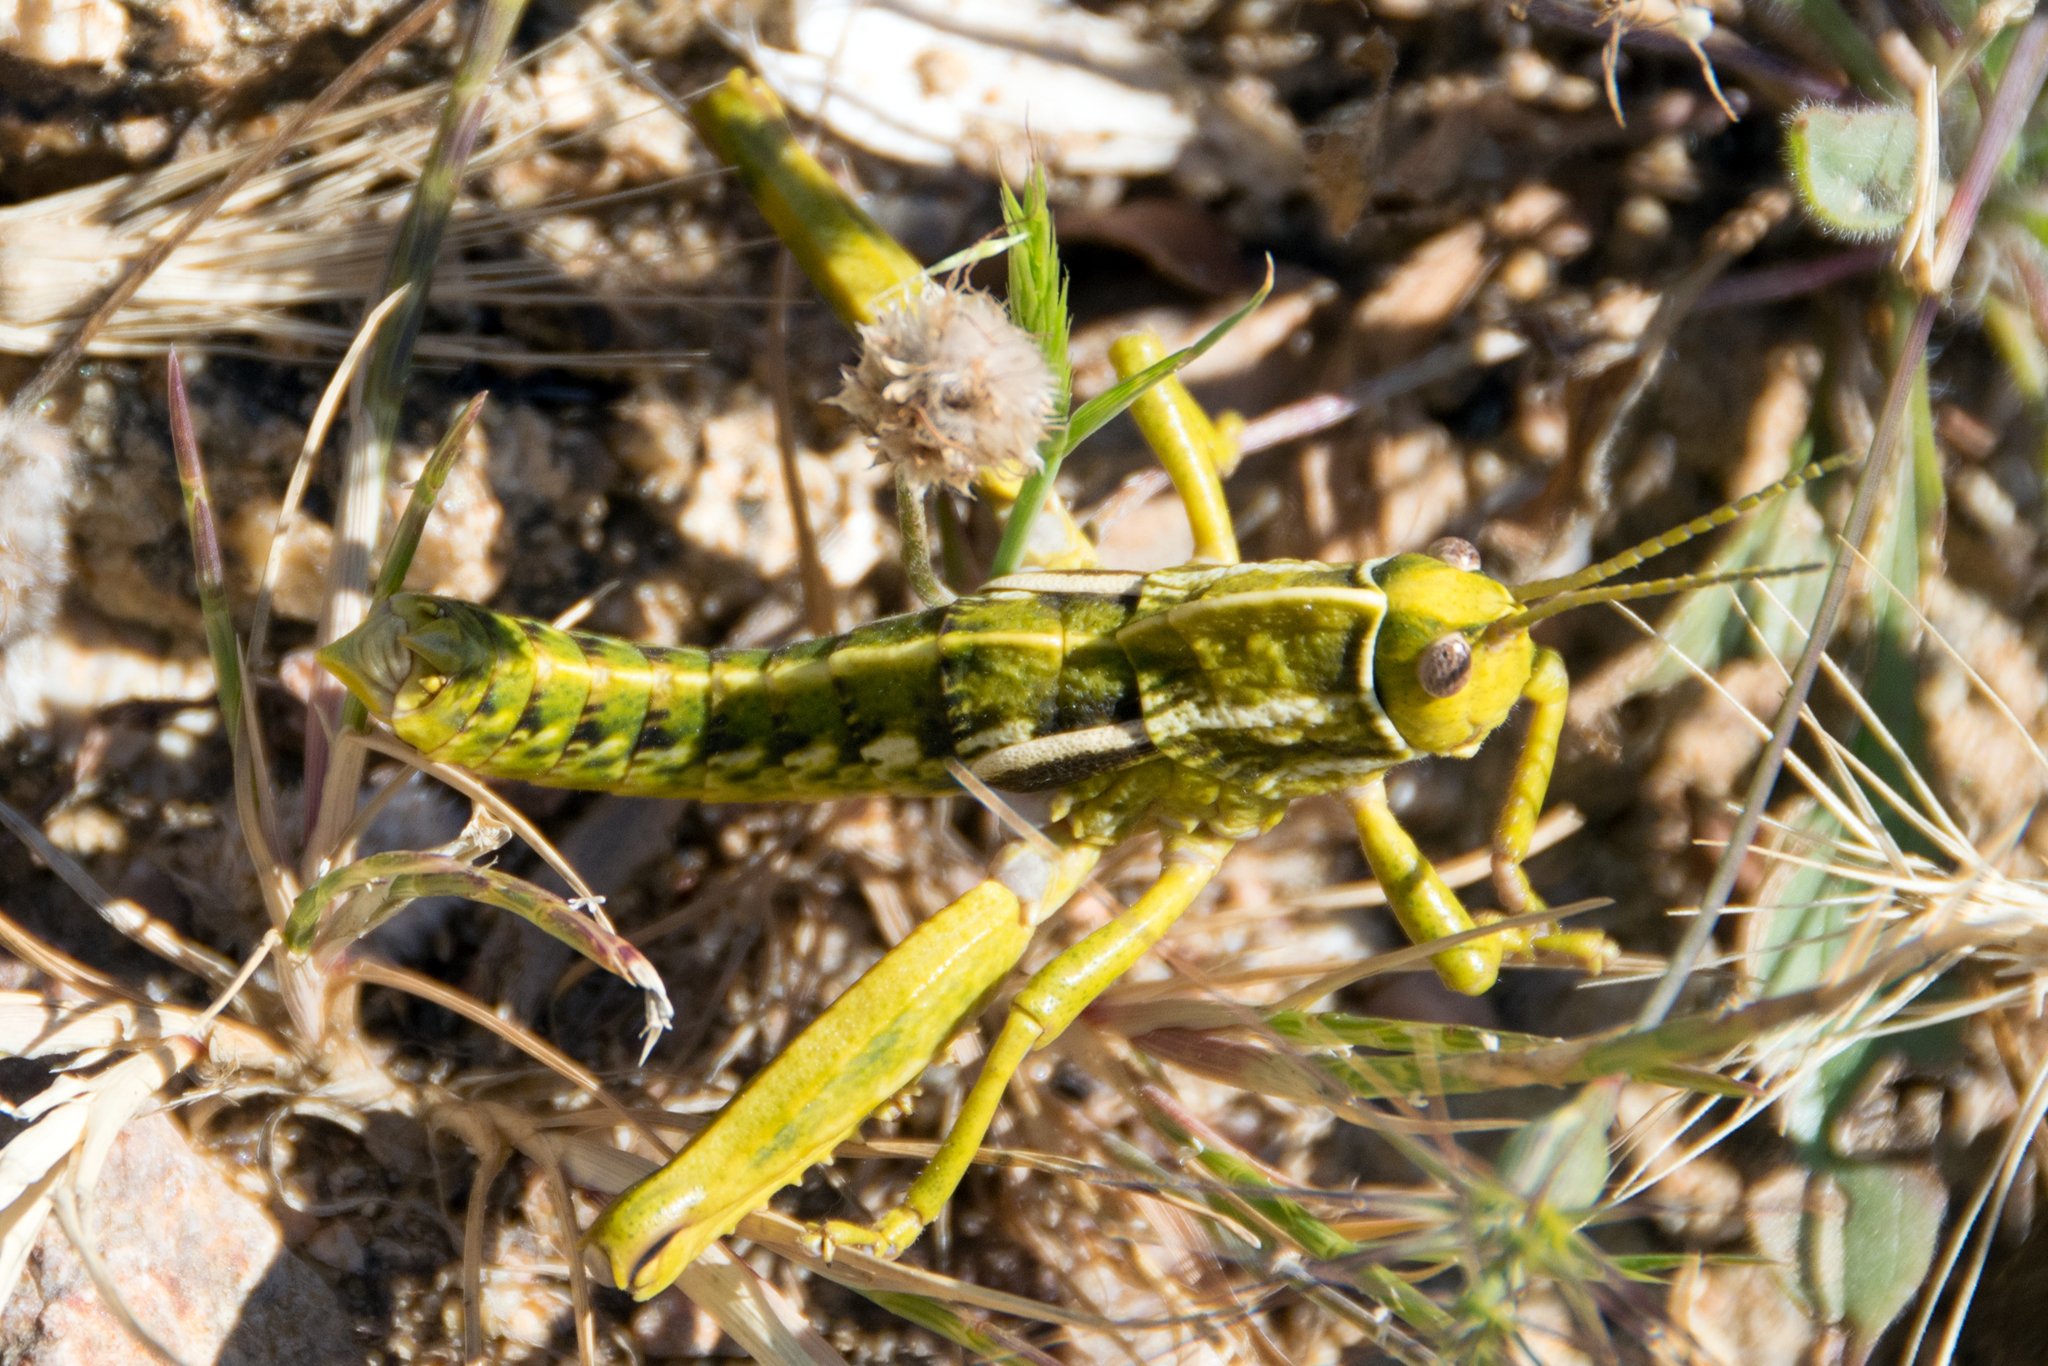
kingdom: Animalia
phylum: Arthropoda
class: Insecta
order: Orthoptera
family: Pamphagidae
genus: Pamphagus
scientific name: Pamphagus sardeus
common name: Sardinian stone grasshopper
